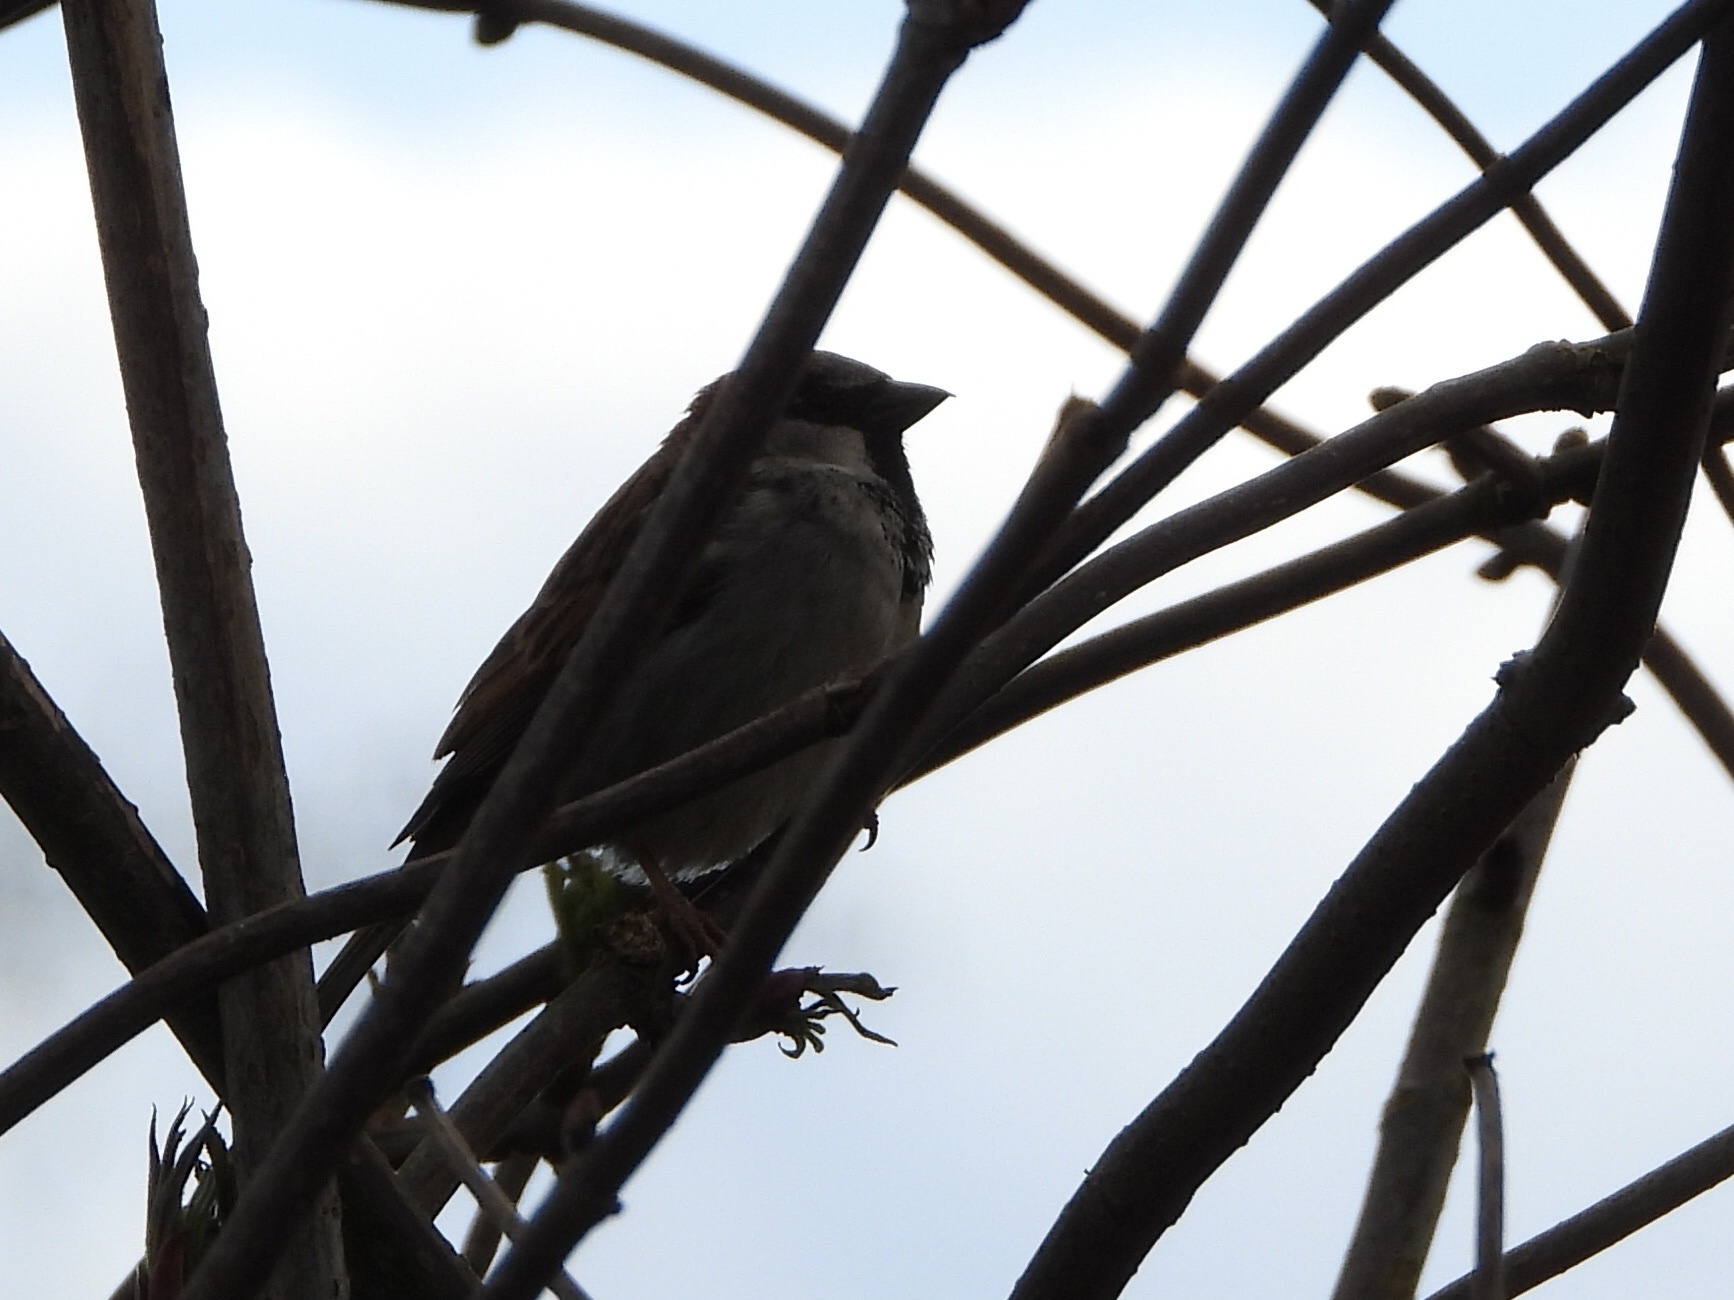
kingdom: Animalia
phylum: Chordata
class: Aves
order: Passeriformes
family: Passeridae
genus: Passer
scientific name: Passer domesticus
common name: House sparrow
